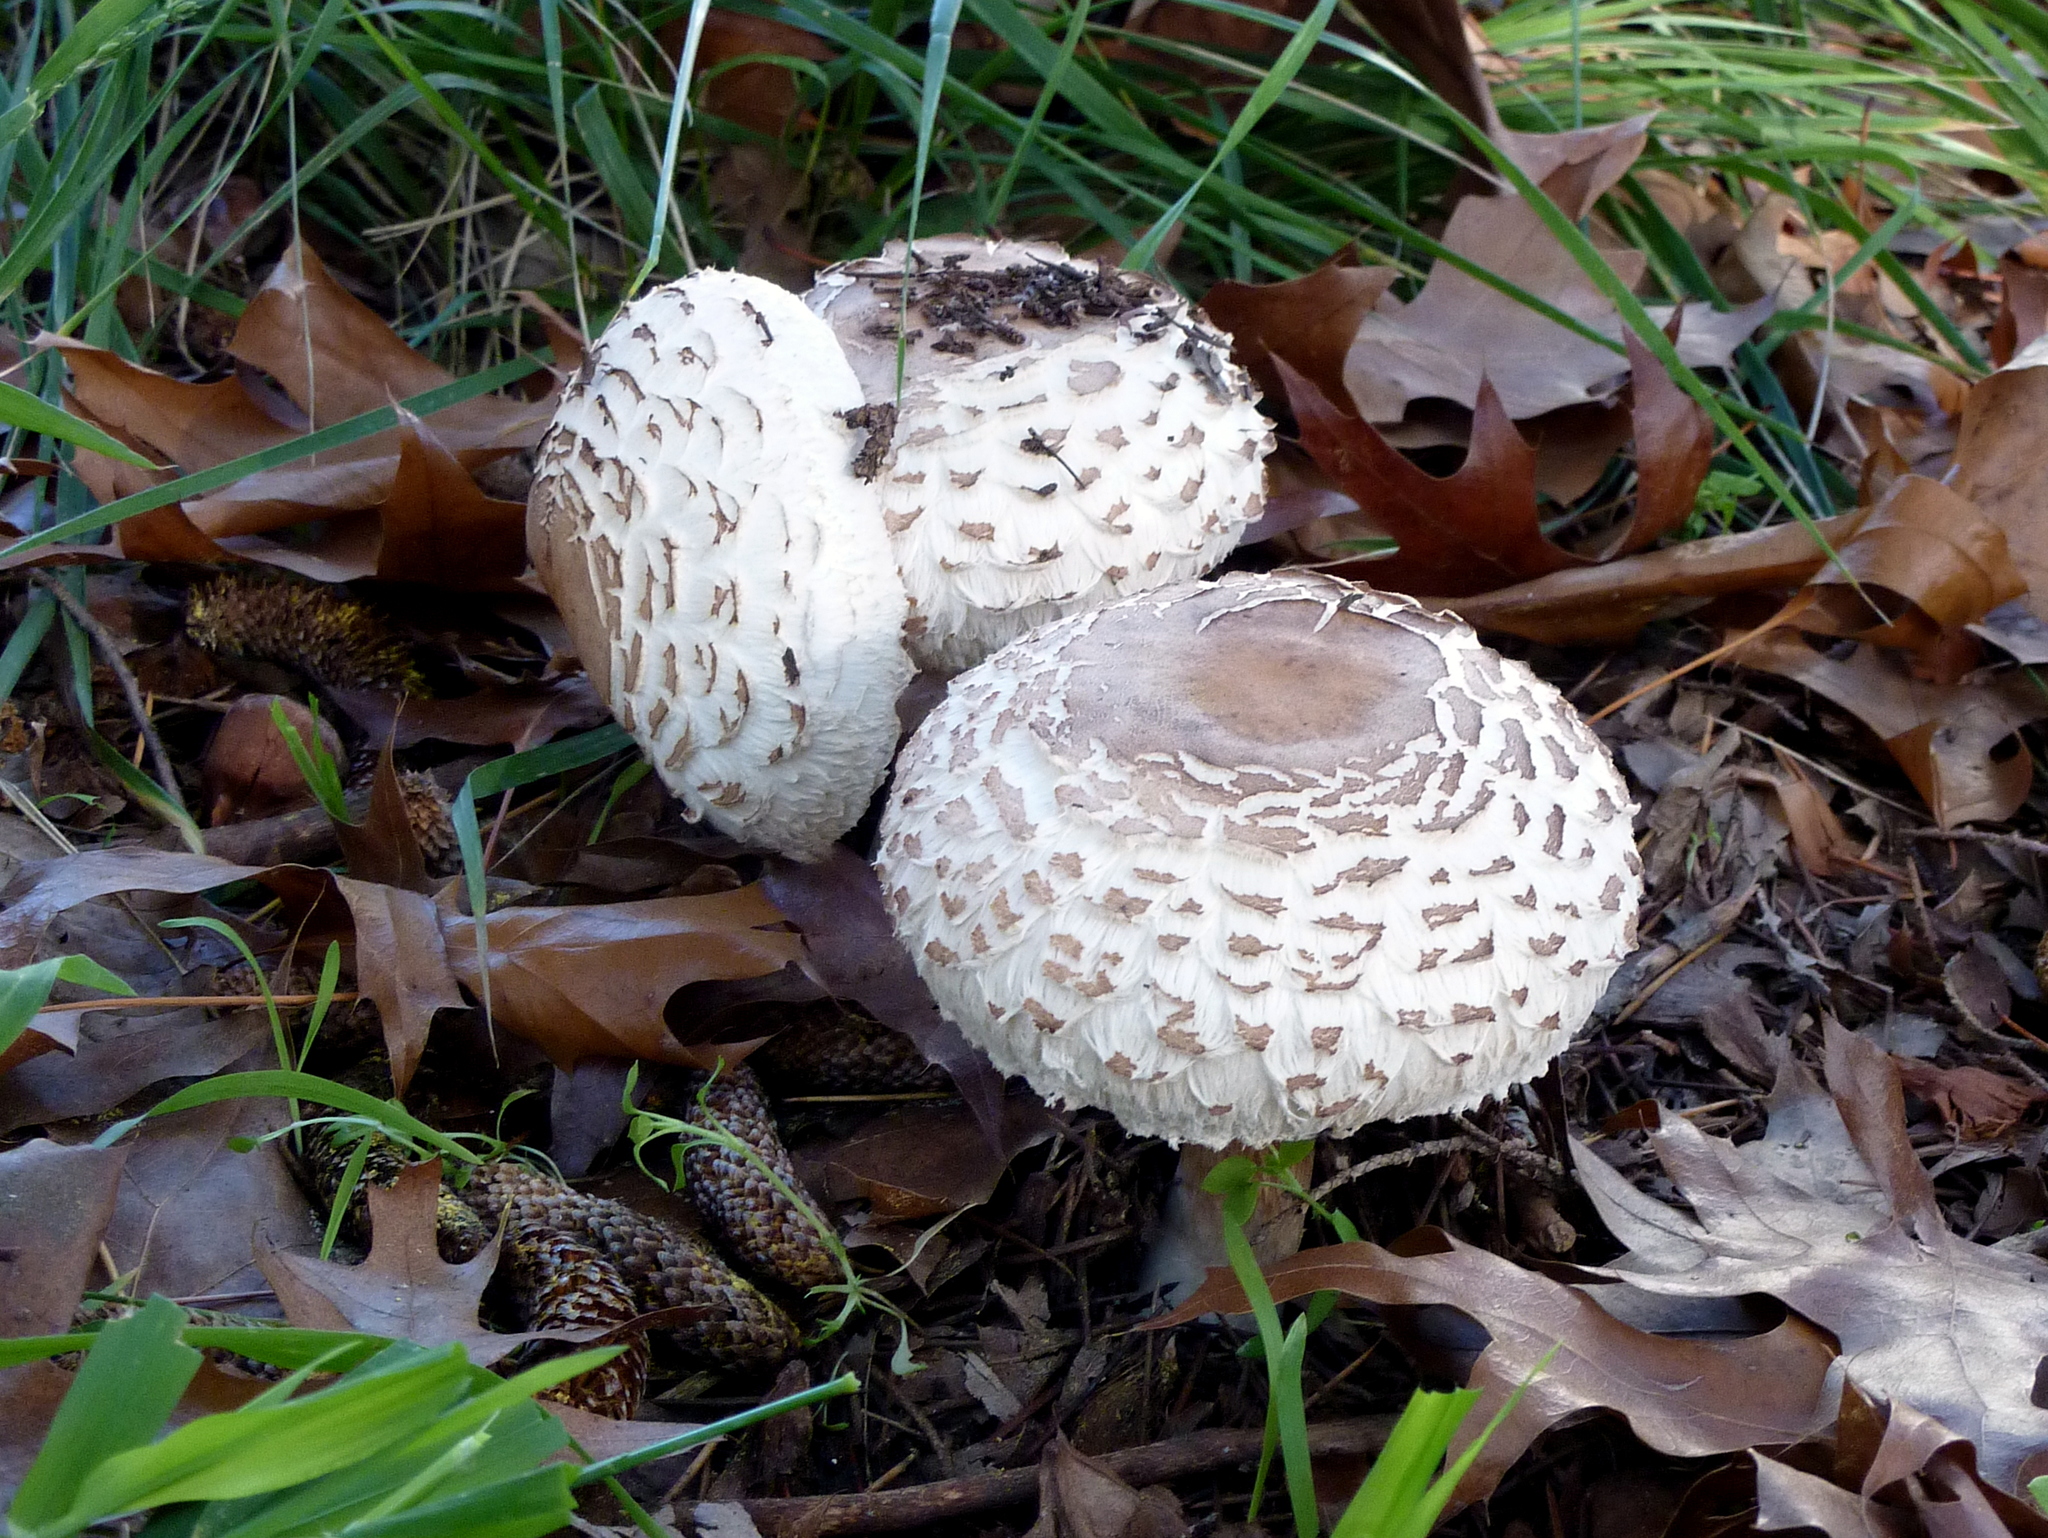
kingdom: Fungi
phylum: Basidiomycota
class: Agaricomycetes
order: Agaricales
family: Agaricaceae
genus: Chlorophyllum
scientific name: Chlorophyllum brunneum
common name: Brown parasol
